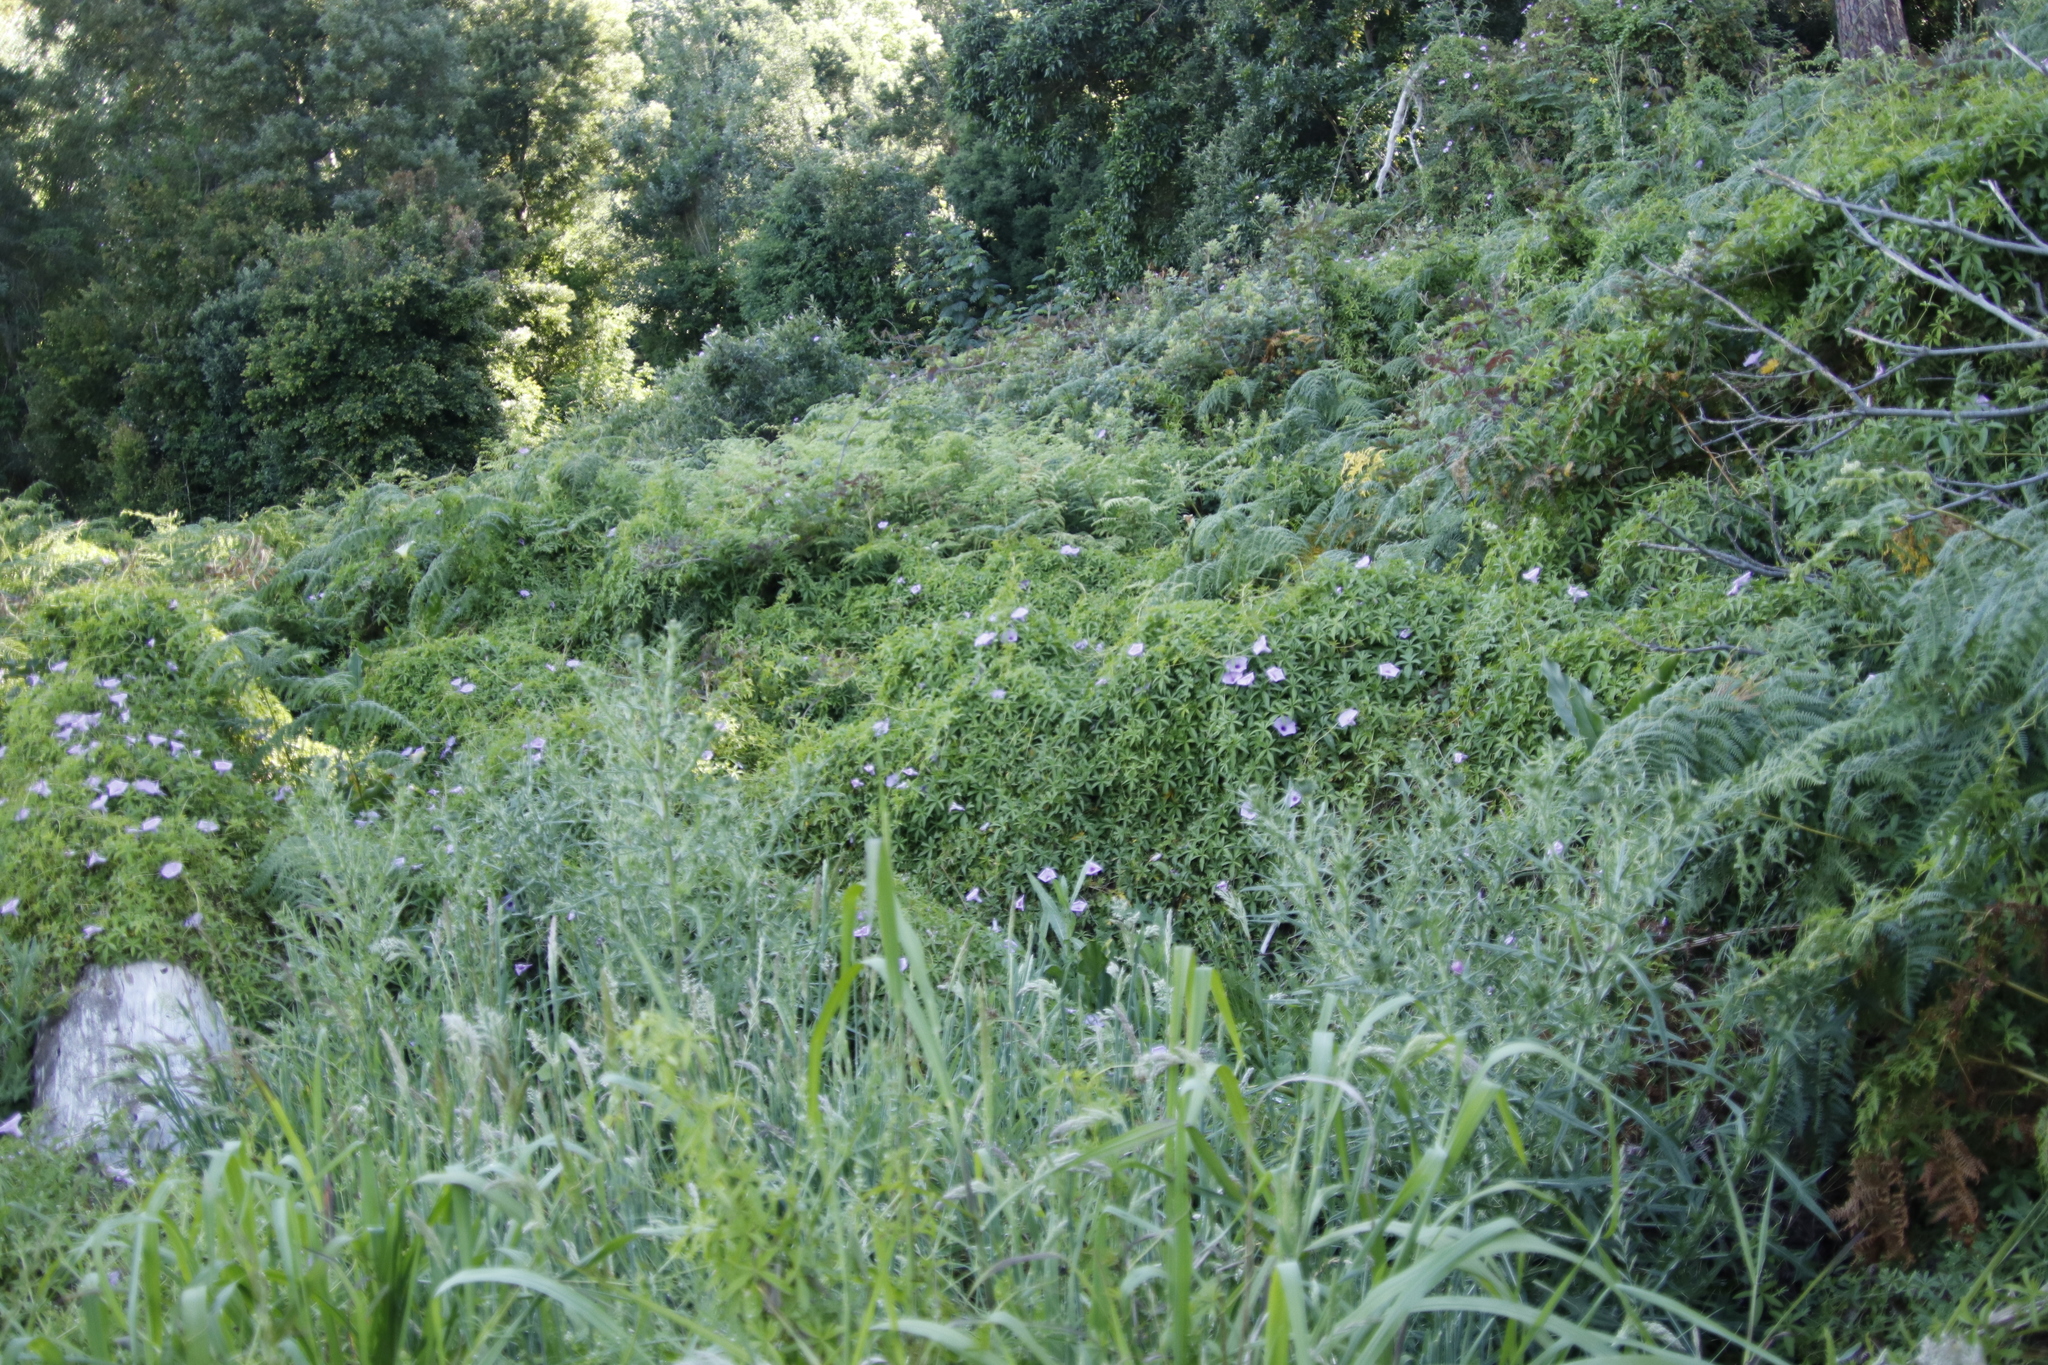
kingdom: Plantae
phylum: Tracheophyta
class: Magnoliopsida
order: Solanales
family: Convolvulaceae
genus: Ipomoea
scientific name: Ipomoea cairica
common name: Mile a minute vine
